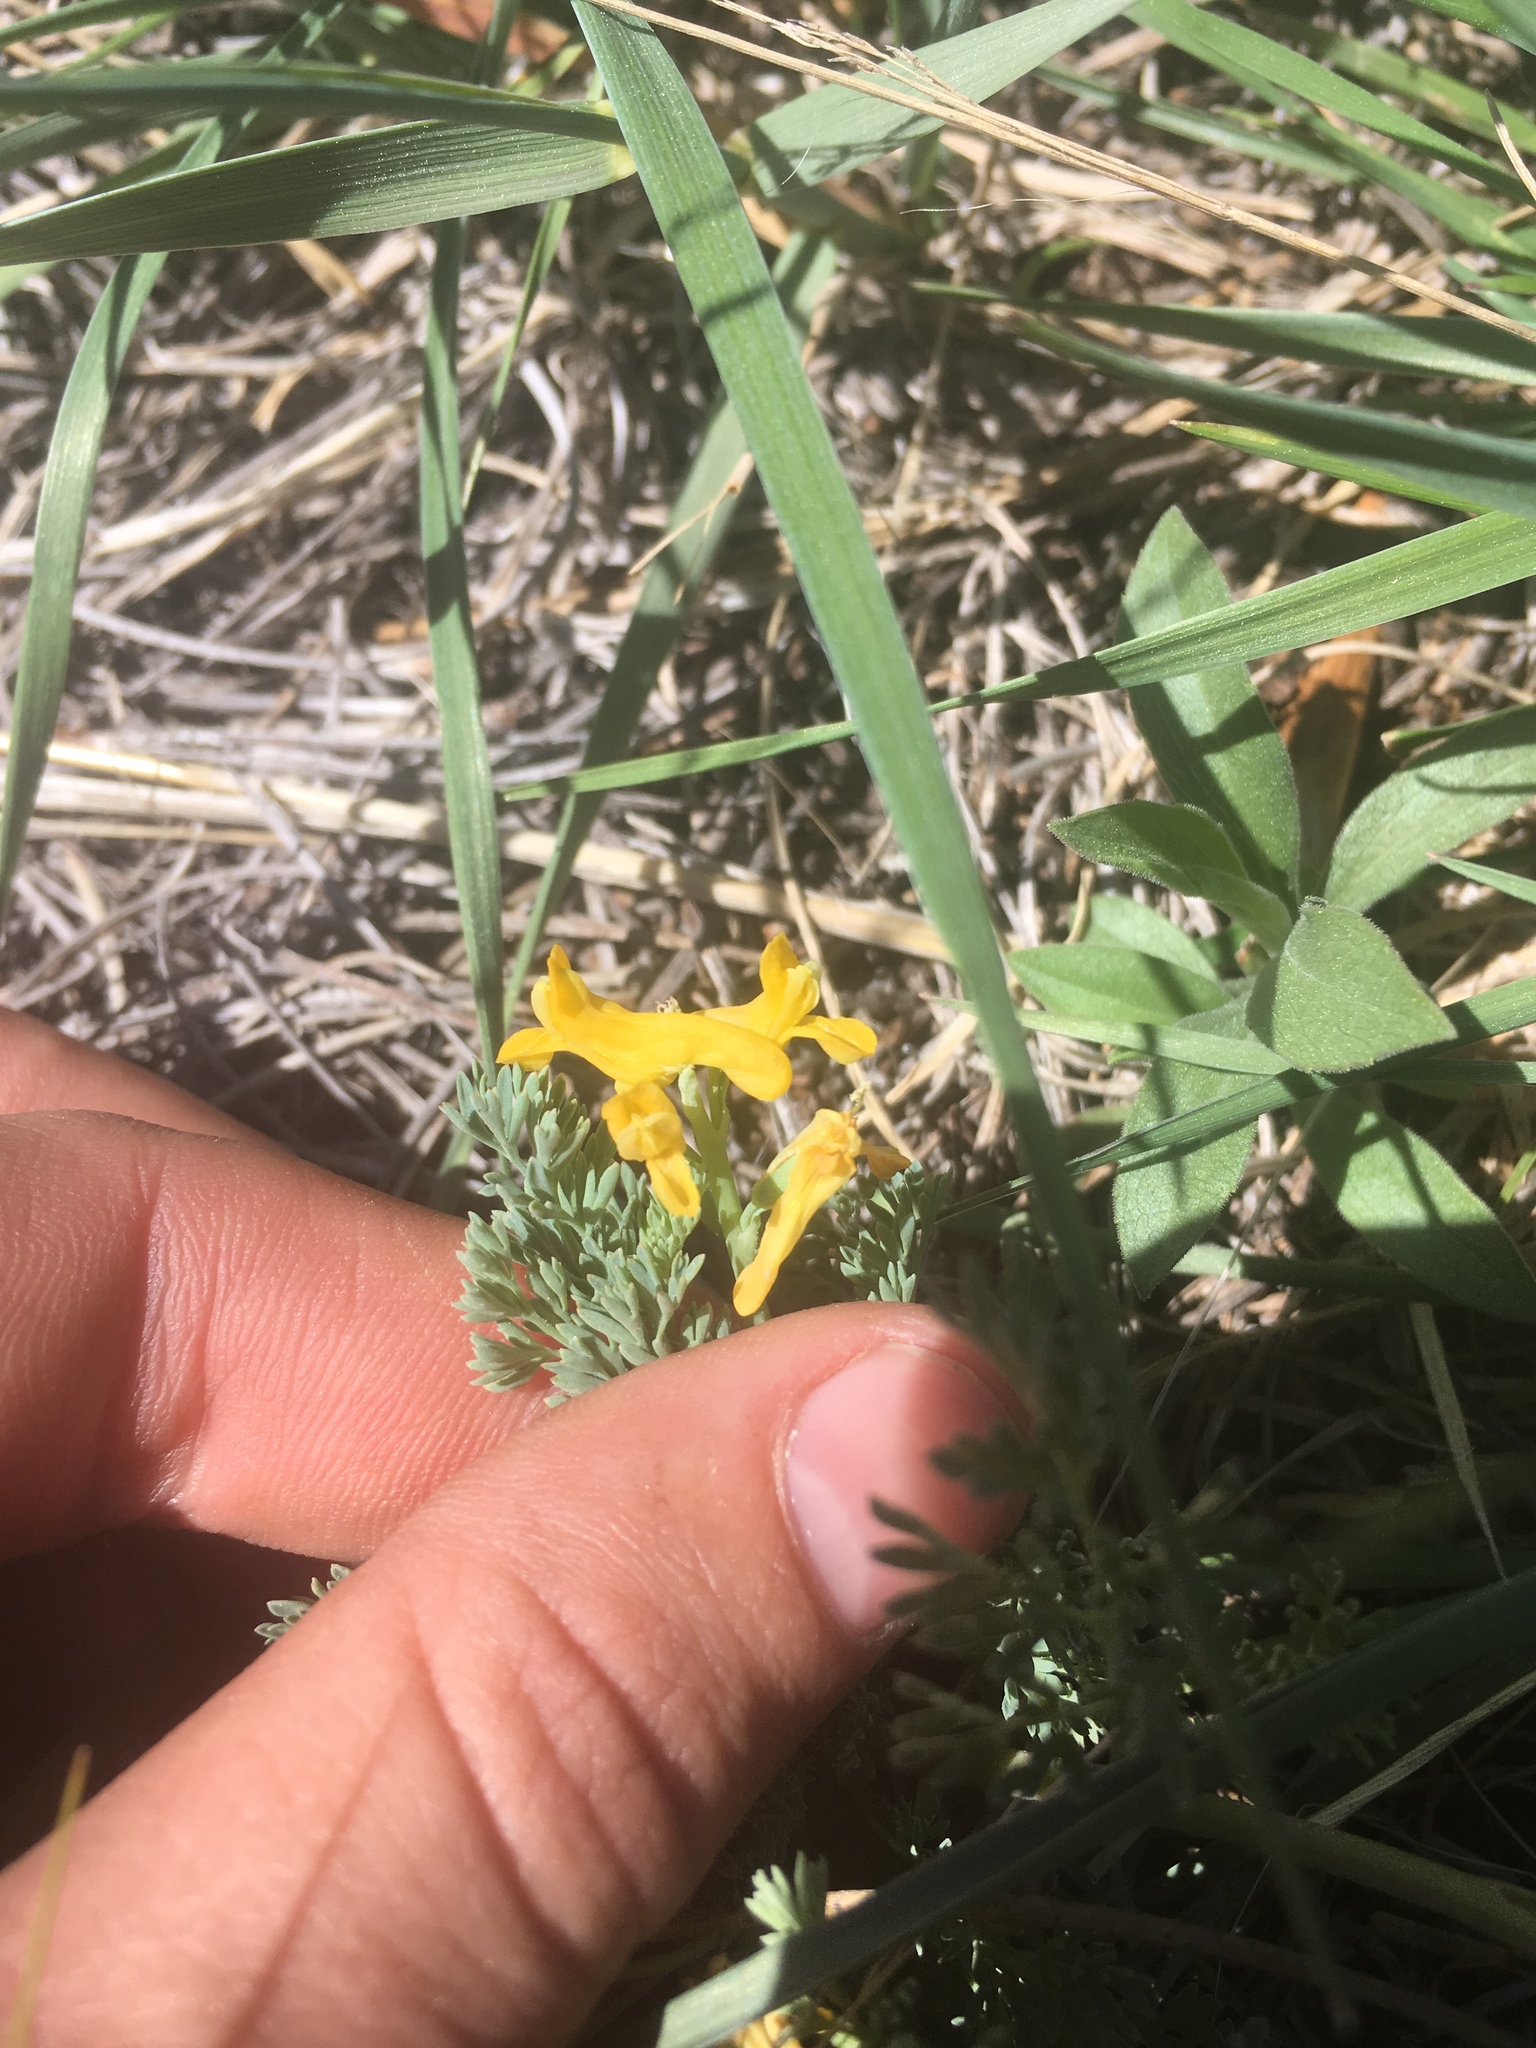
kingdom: Plantae
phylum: Tracheophyta
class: Magnoliopsida
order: Ranunculales
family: Papaveraceae
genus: Corydalis
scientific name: Corydalis aurea
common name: Golden corydalis
